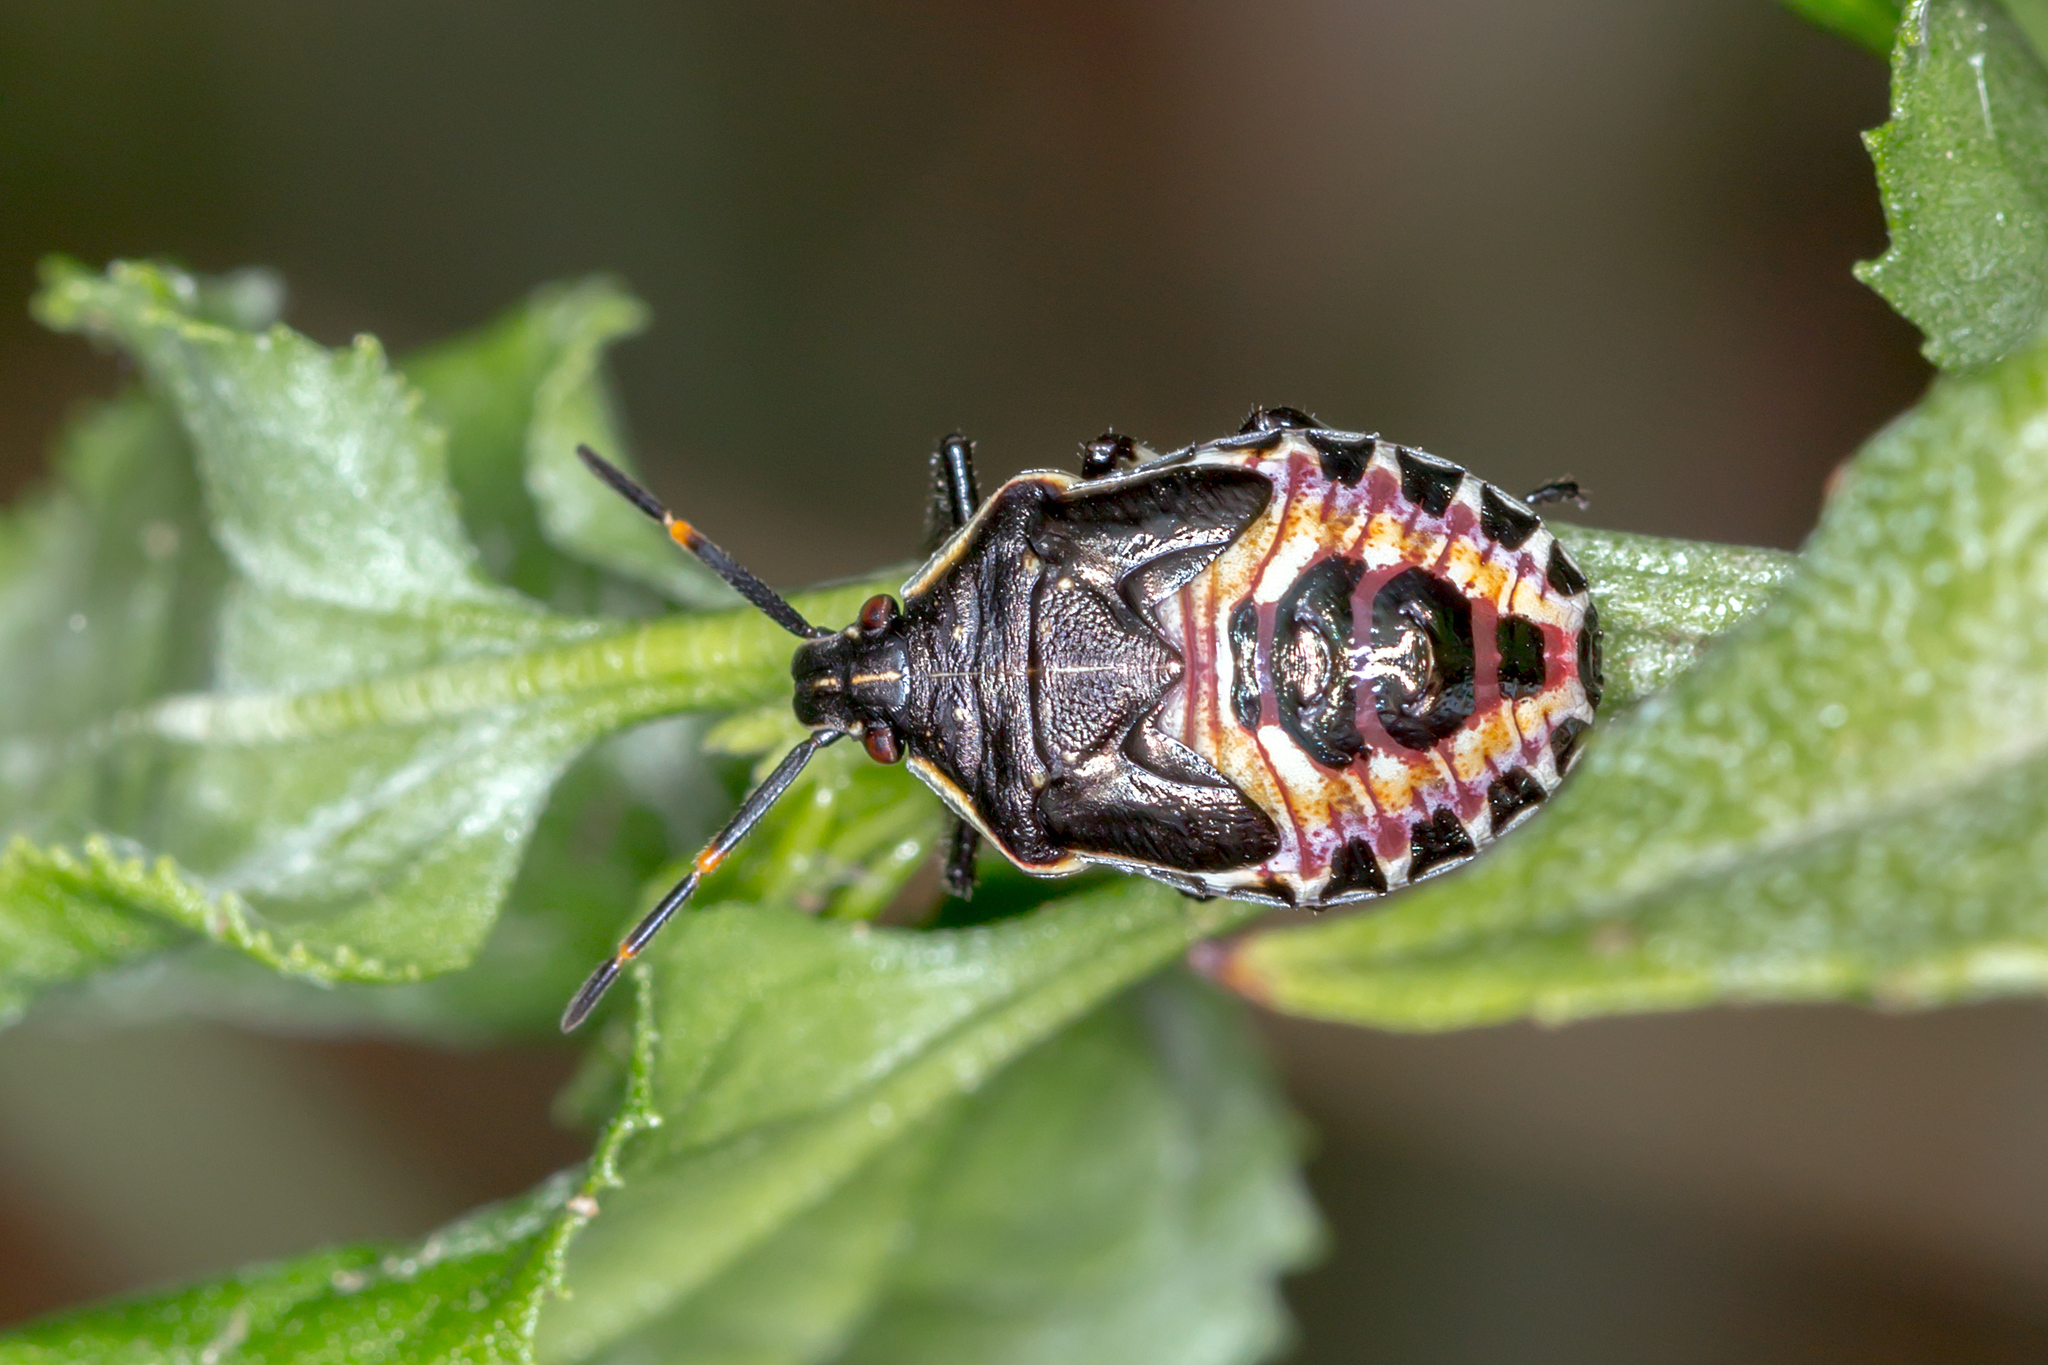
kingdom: Animalia
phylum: Arthropoda
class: Insecta
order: Hemiptera
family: Pentatomidae
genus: Oechalia
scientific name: Oechalia schellenbergii
